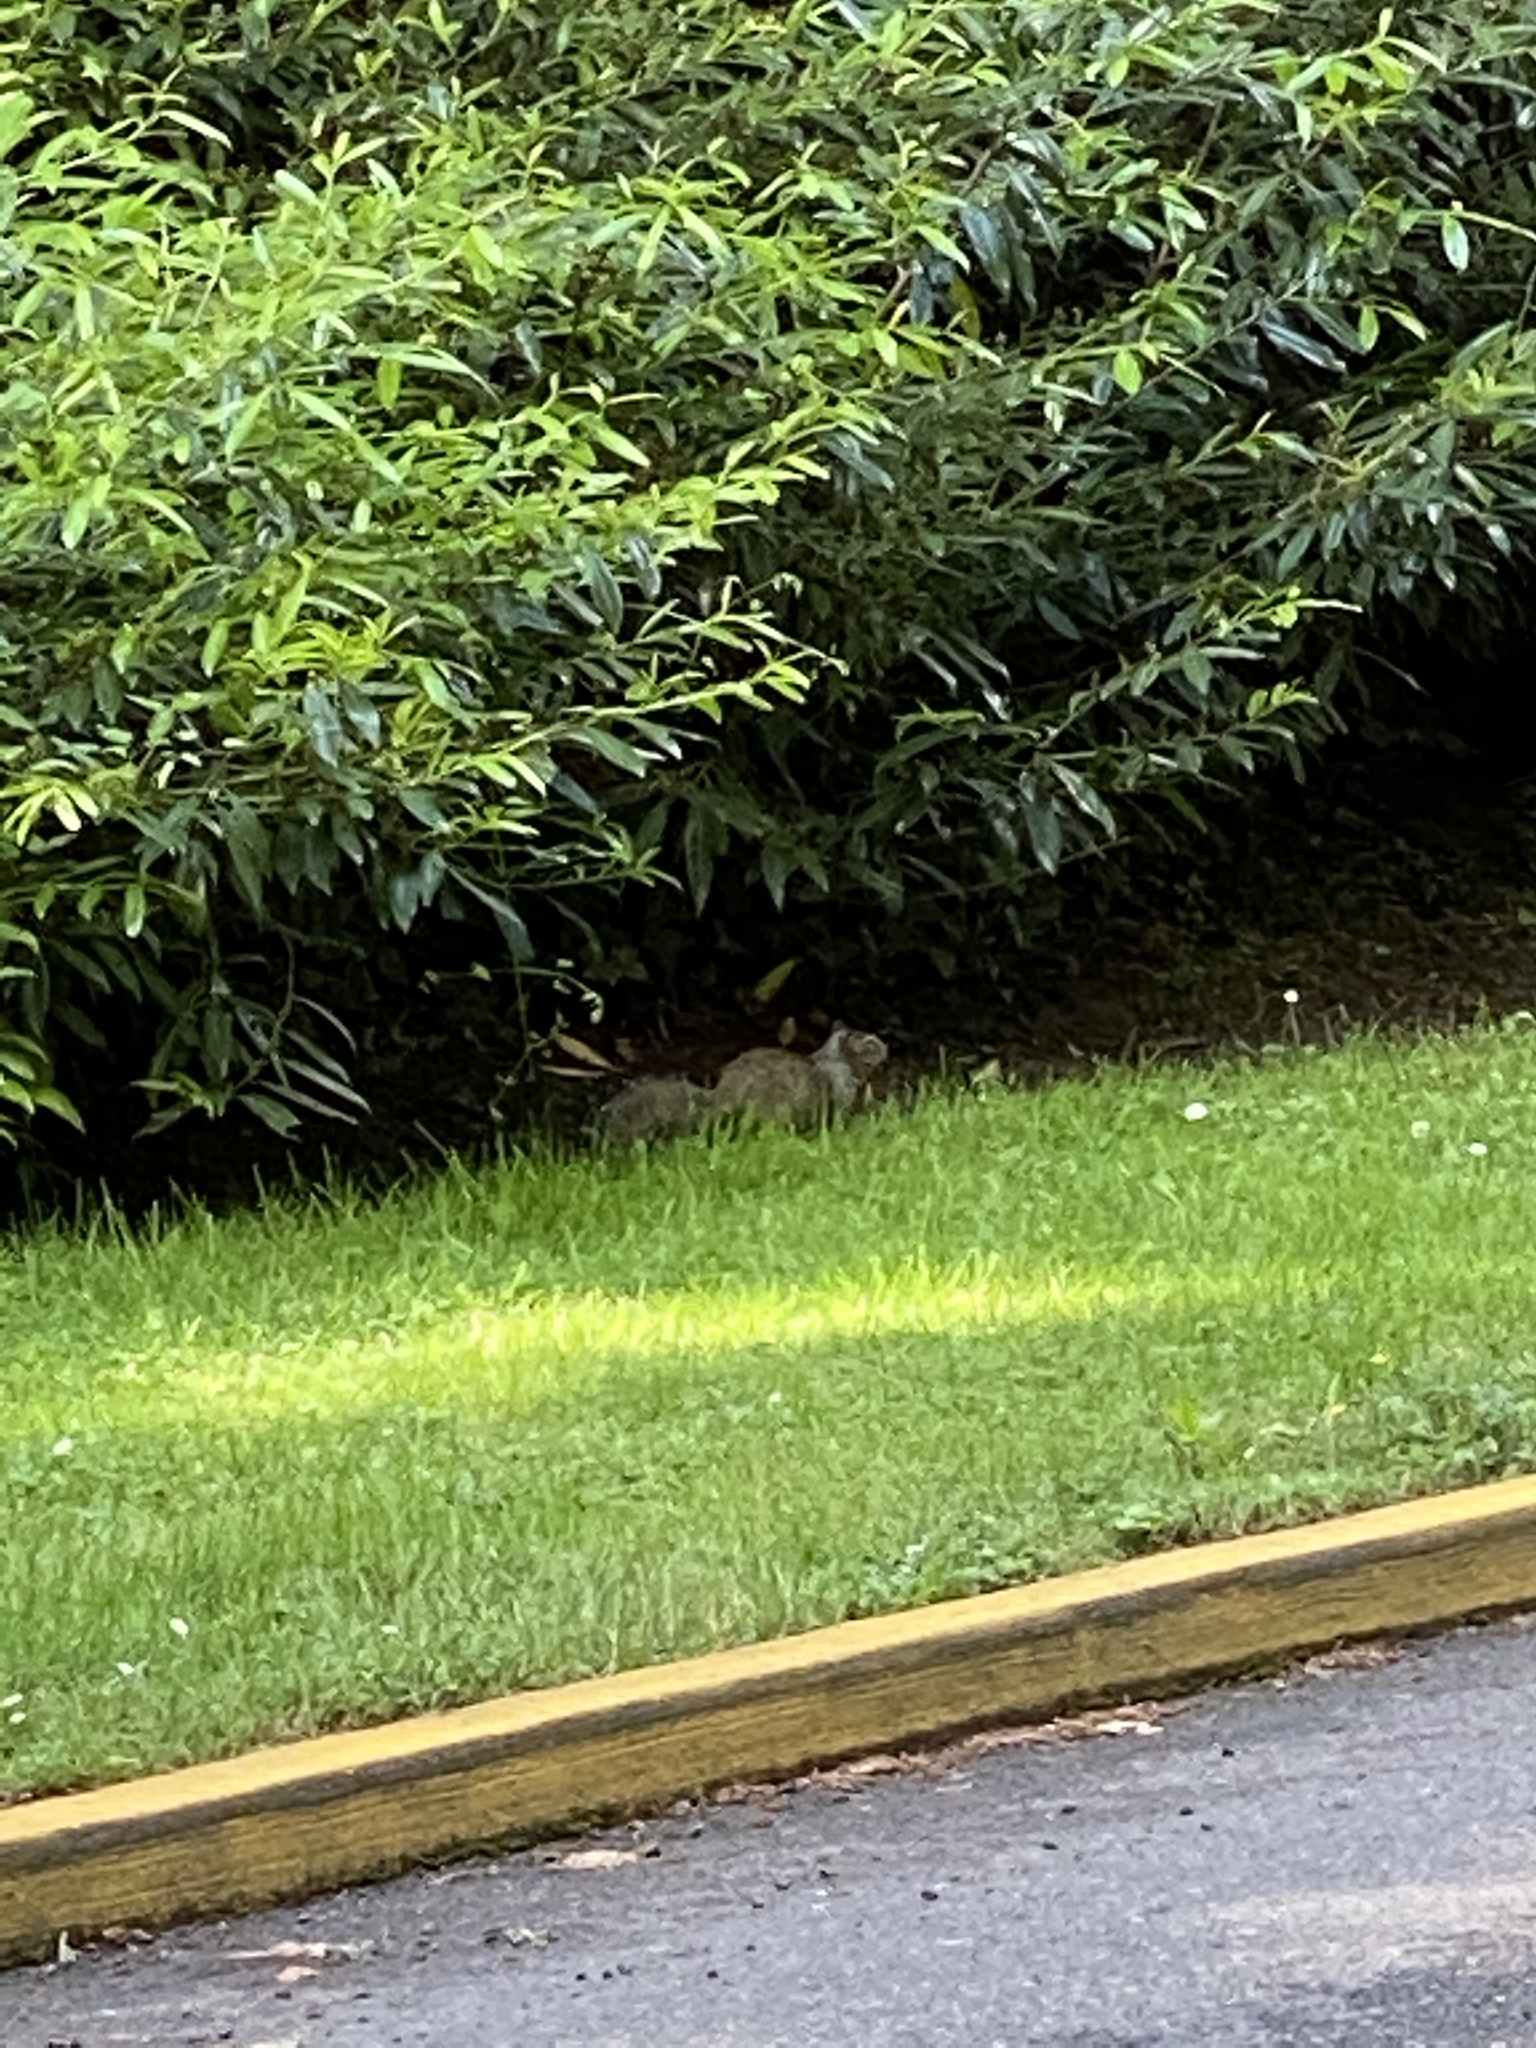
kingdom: Animalia
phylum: Chordata
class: Mammalia
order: Rodentia
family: Sciuridae
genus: Otospermophilus
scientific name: Otospermophilus beecheyi
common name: California ground squirrel
